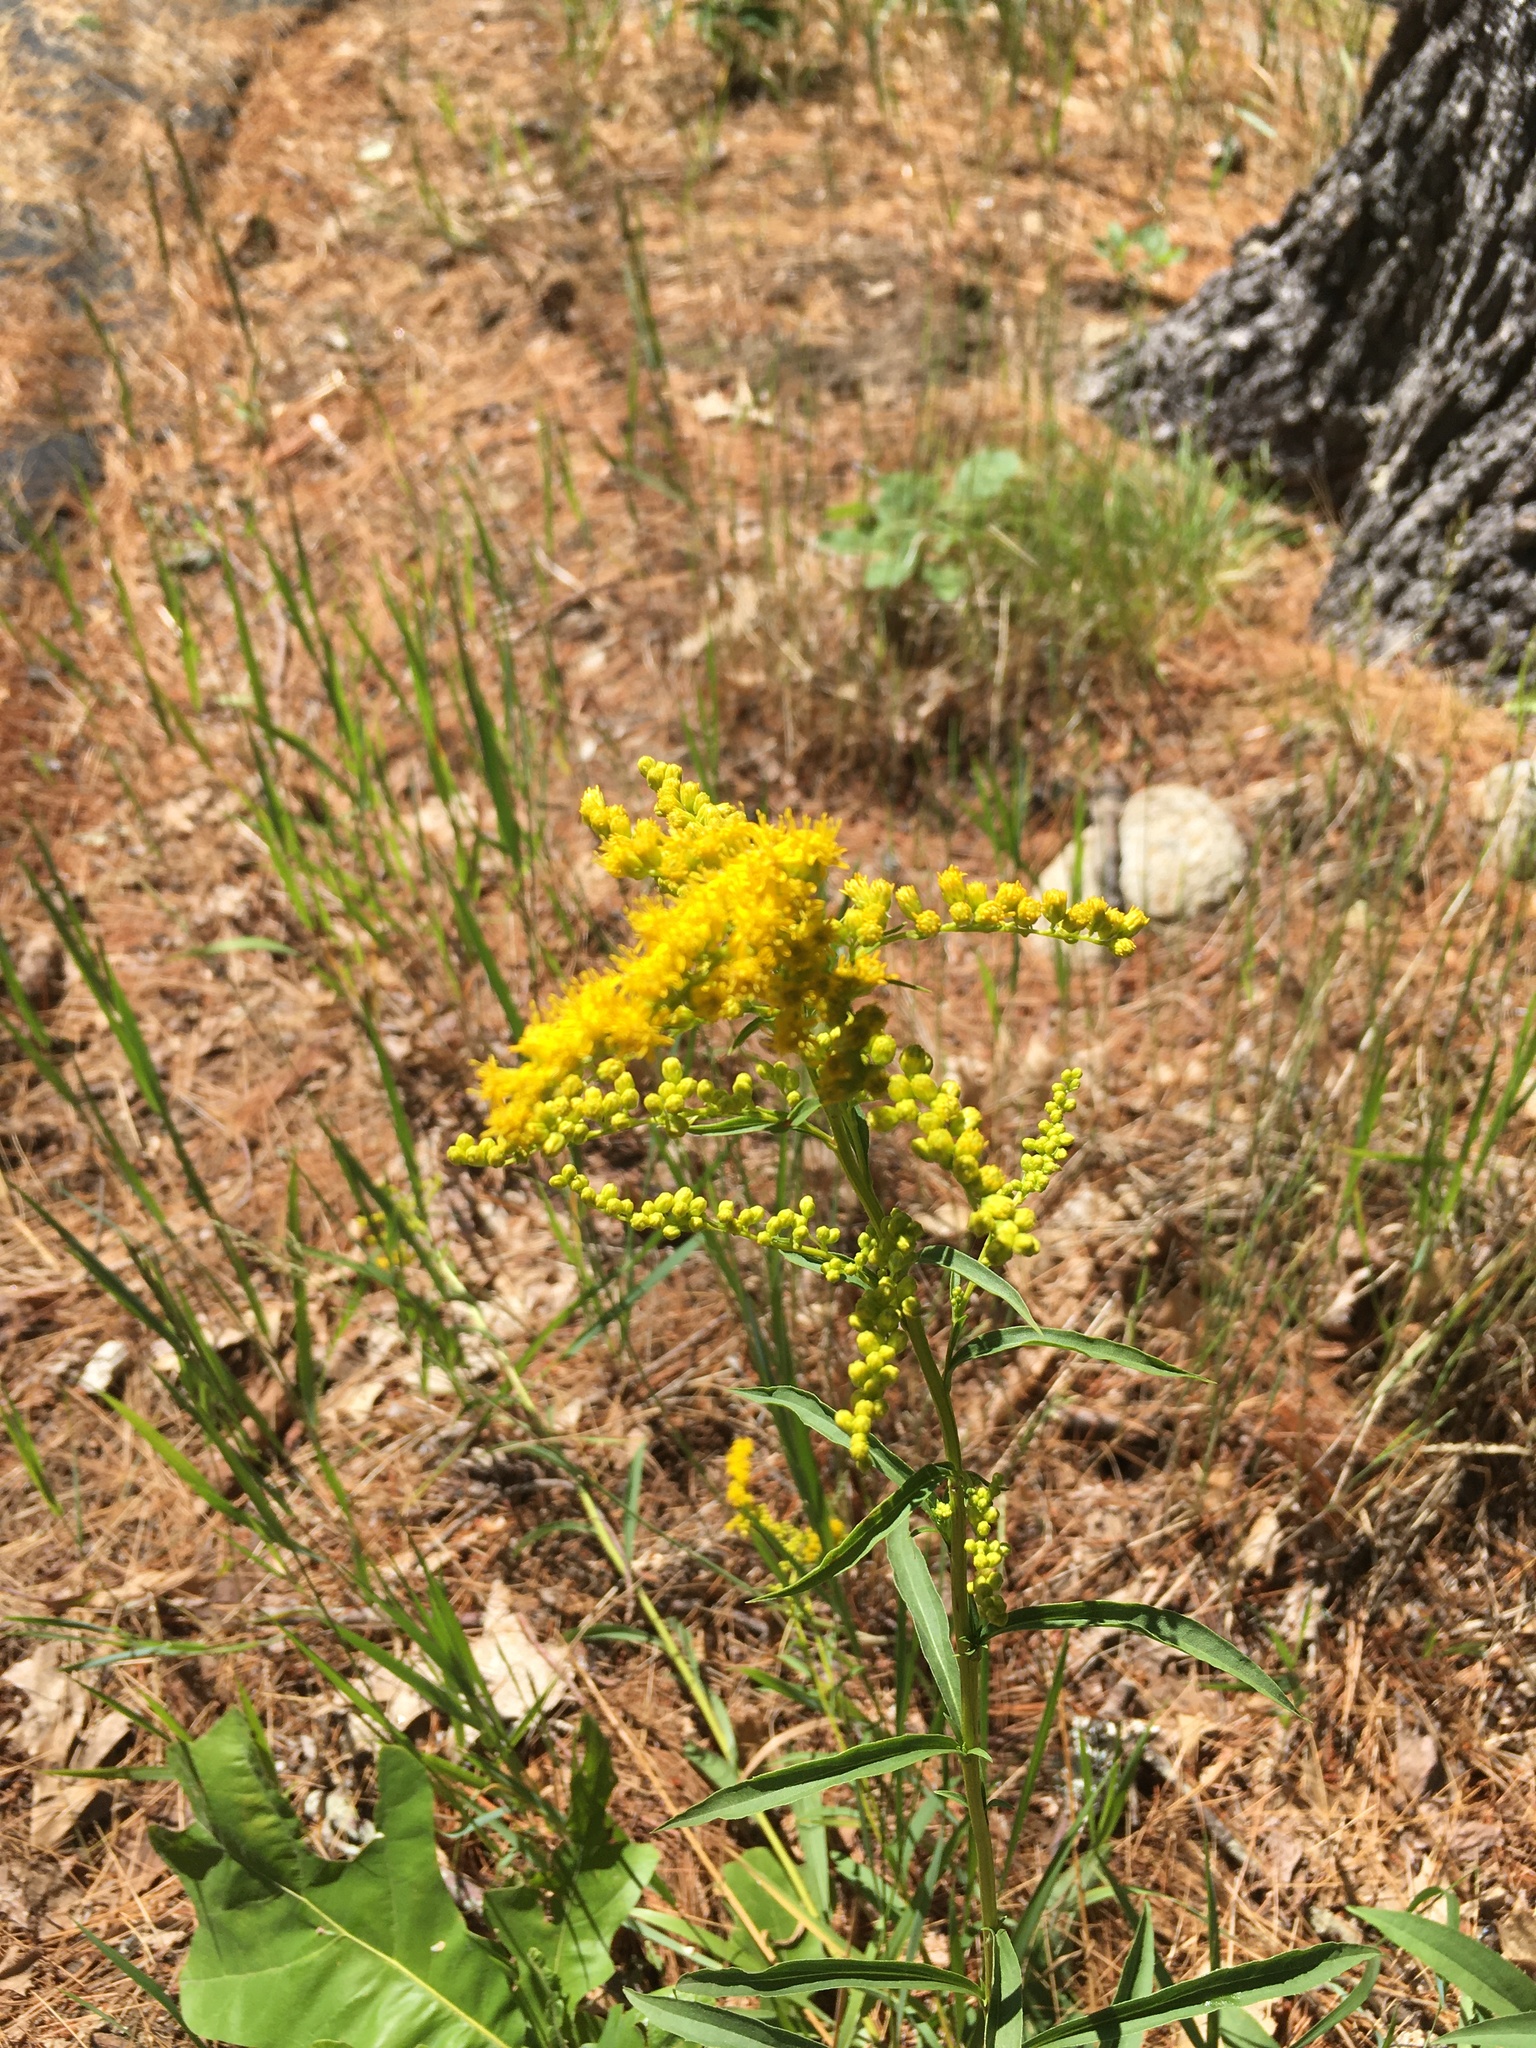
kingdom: Plantae
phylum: Tracheophyta
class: Magnoliopsida
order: Asterales
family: Asteraceae
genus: Solidago
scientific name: Solidago juncea
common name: Early goldenrod
